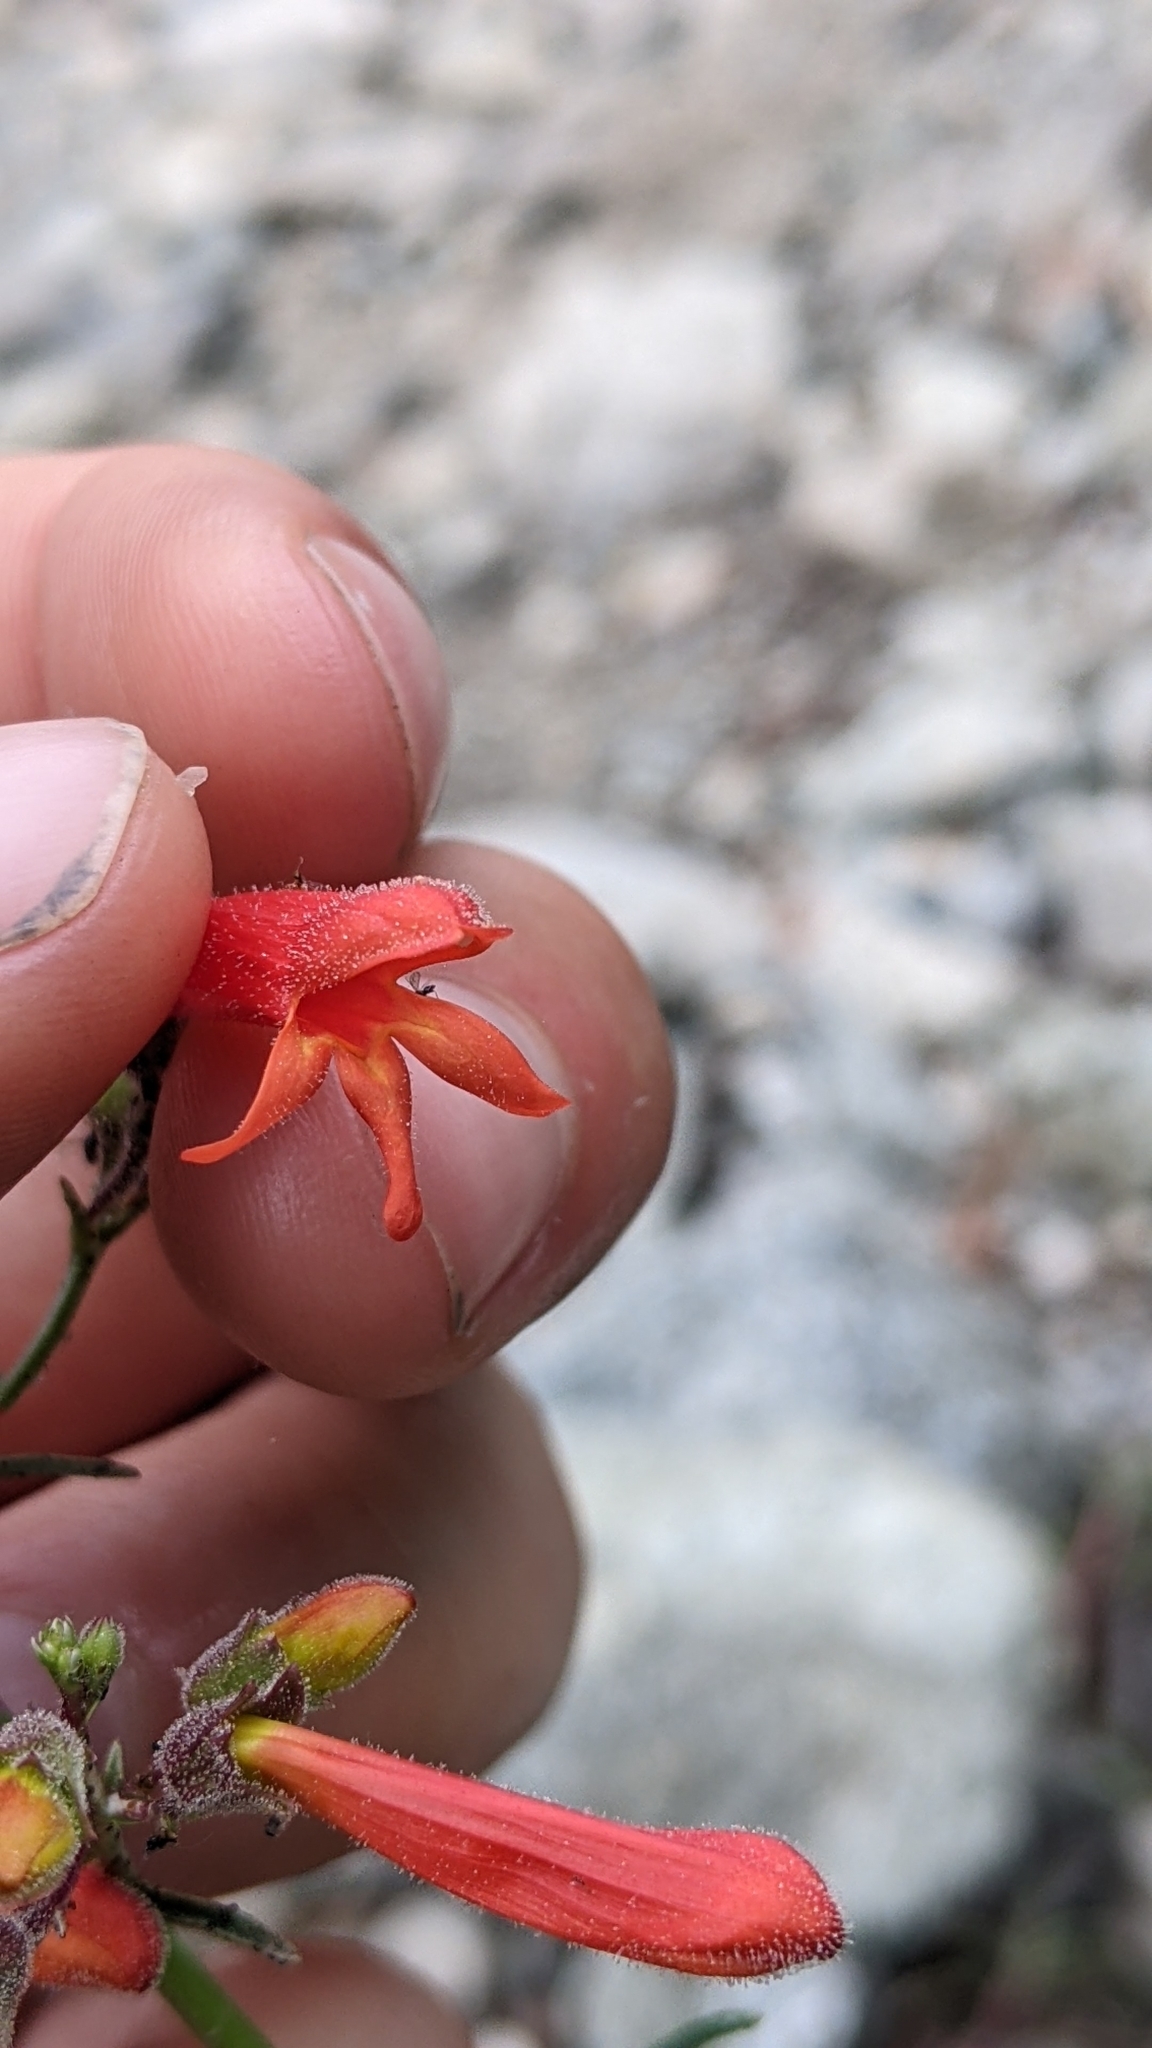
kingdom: Plantae
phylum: Tracheophyta
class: Magnoliopsida
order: Lamiales
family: Plantaginaceae
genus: Penstemon
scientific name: Penstemon rostriflorus
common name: Bridges's penstemon
